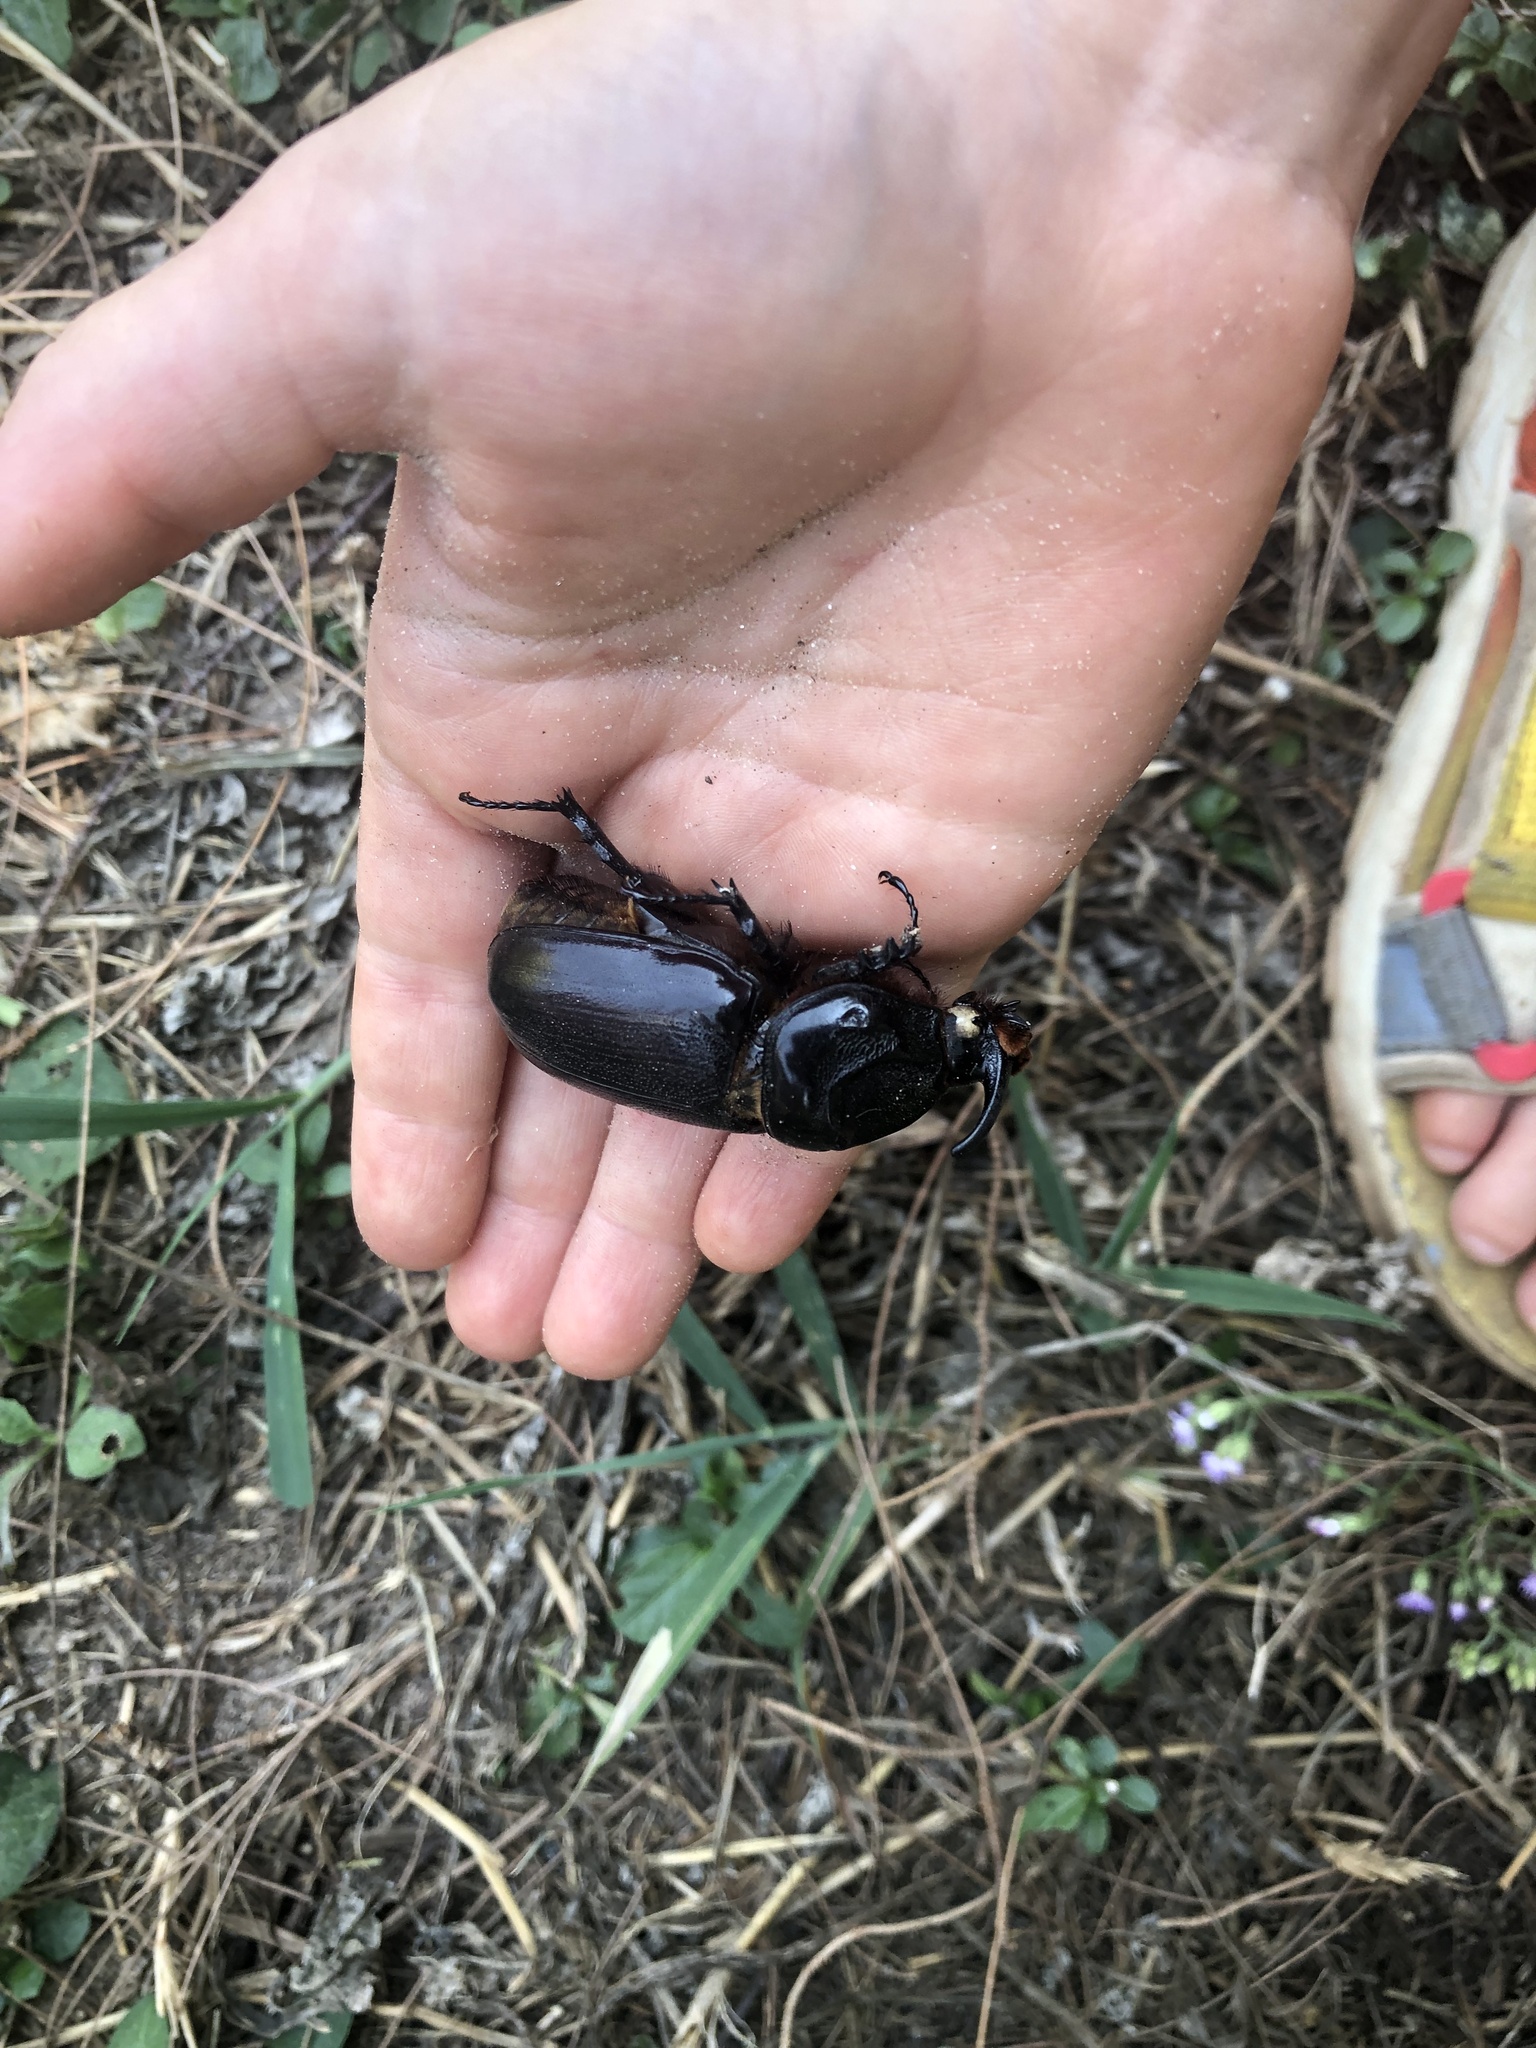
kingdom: Animalia
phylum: Arthropoda
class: Insecta
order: Coleoptera
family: Scarabaeidae
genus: Oryctes
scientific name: Oryctes rhinoceros
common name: Coconut rhinoceros beetle
